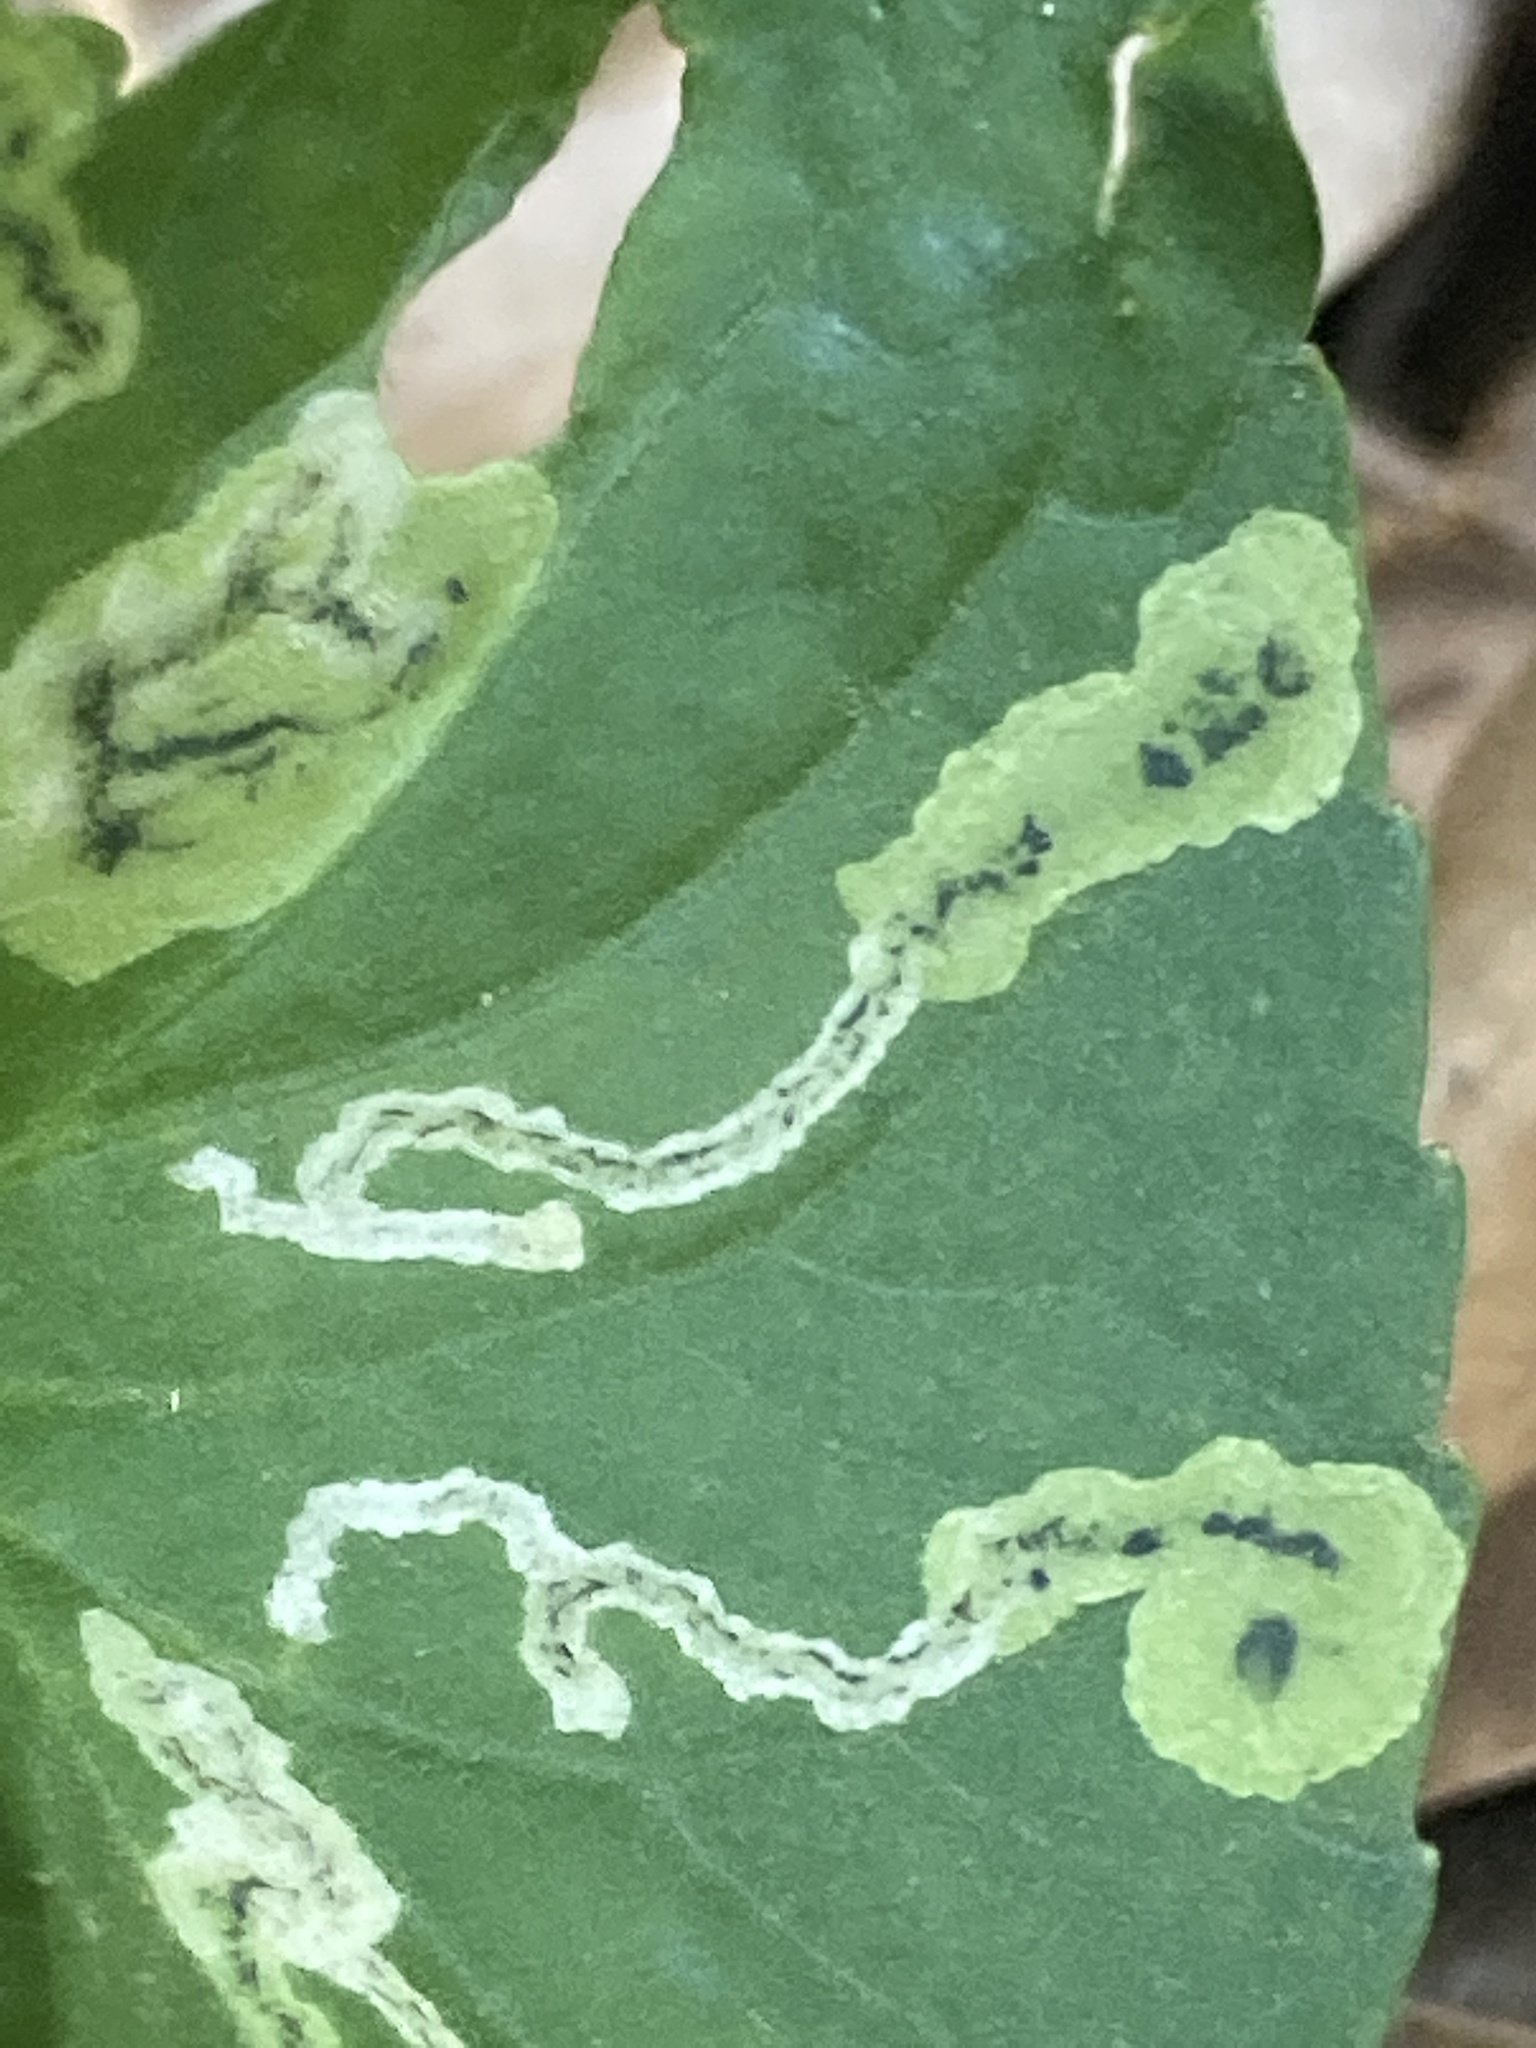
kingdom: Animalia
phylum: Arthropoda
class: Insecta
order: Diptera
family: Agromyzidae
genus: Liriomyza
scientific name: Liriomyza violivora
